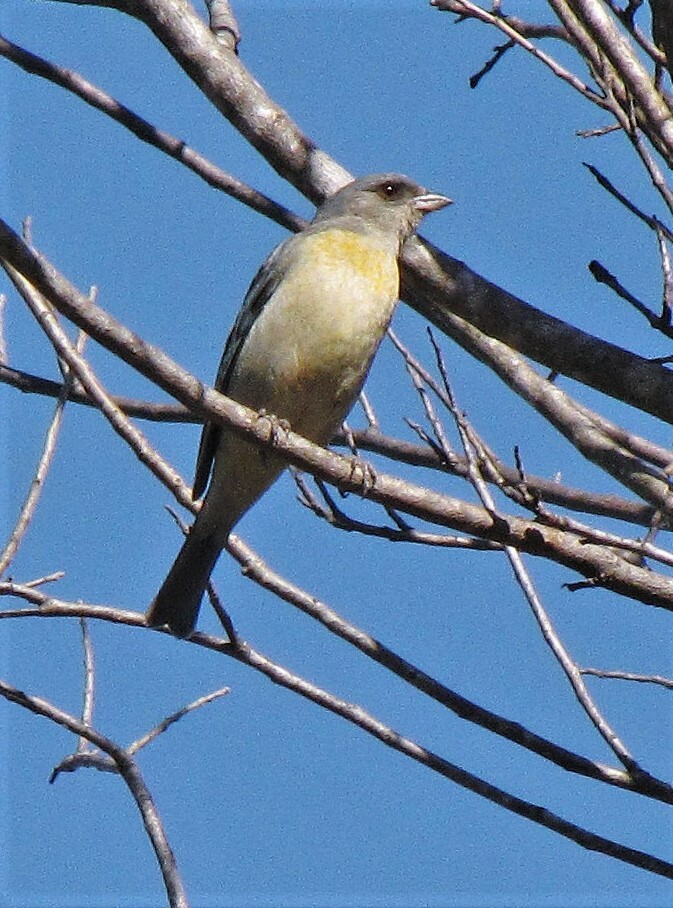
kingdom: Animalia
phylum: Chordata
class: Aves
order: Passeriformes
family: Thraupidae
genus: Rauenia
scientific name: Rauenia bonariensis
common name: Blue-and-yellow tanager
